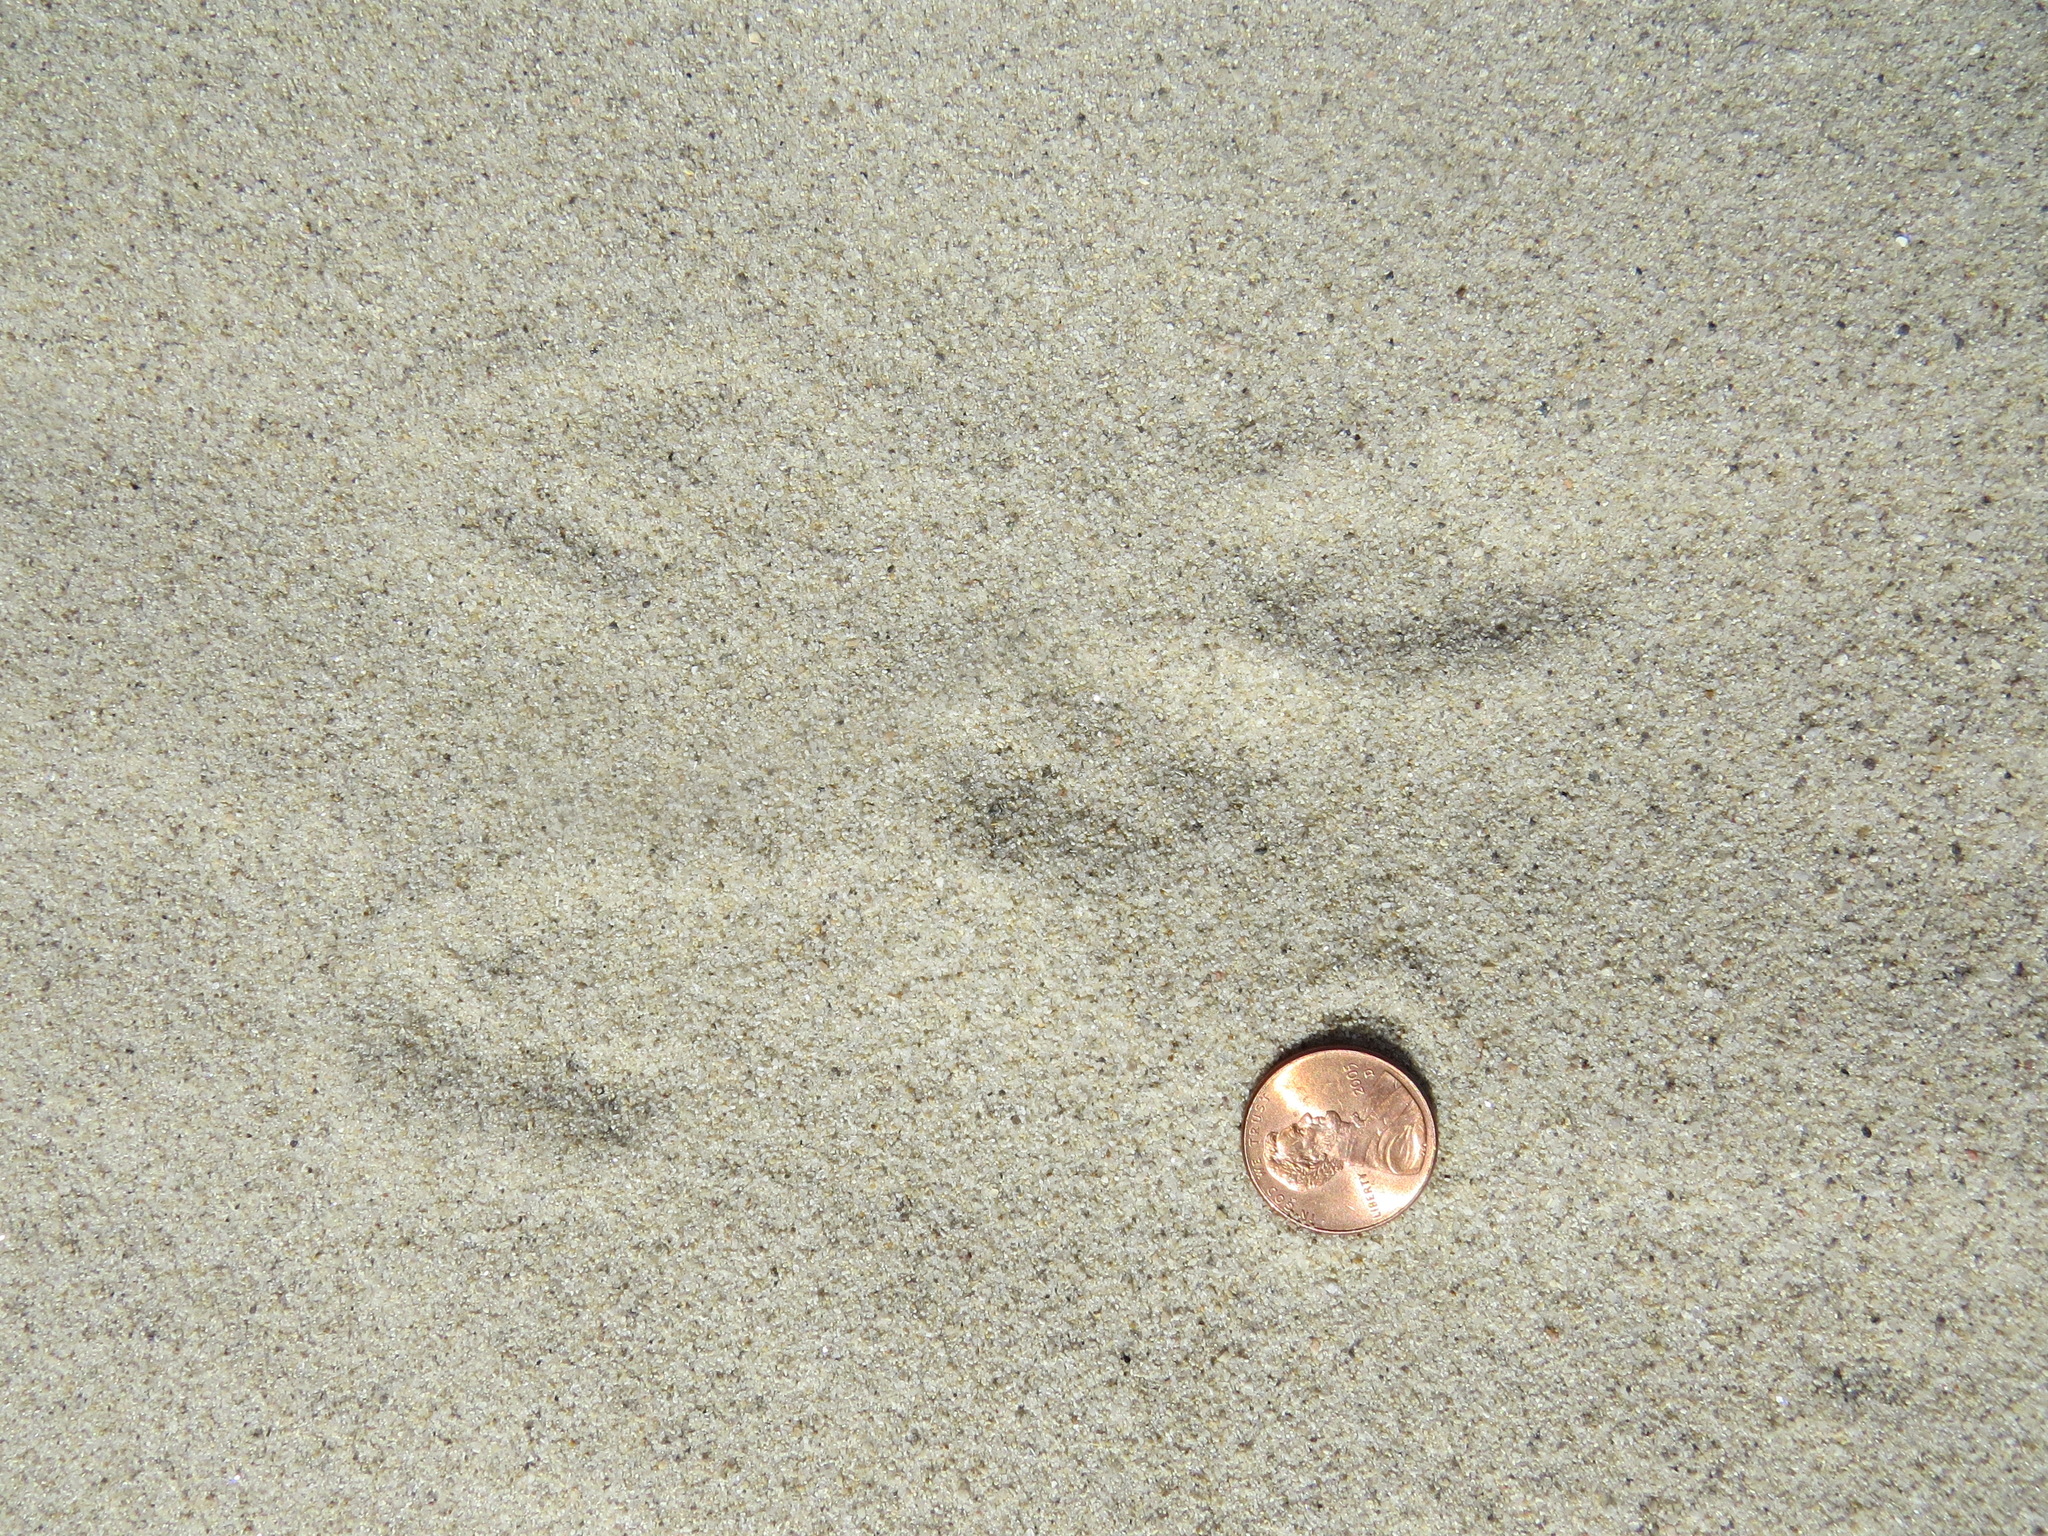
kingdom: Animalia
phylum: Chordata
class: Mammalia
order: Lagomorpha
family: Leporidae
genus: Sylvilagus
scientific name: Sylvilagus audubonii
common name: Desert cottontail
